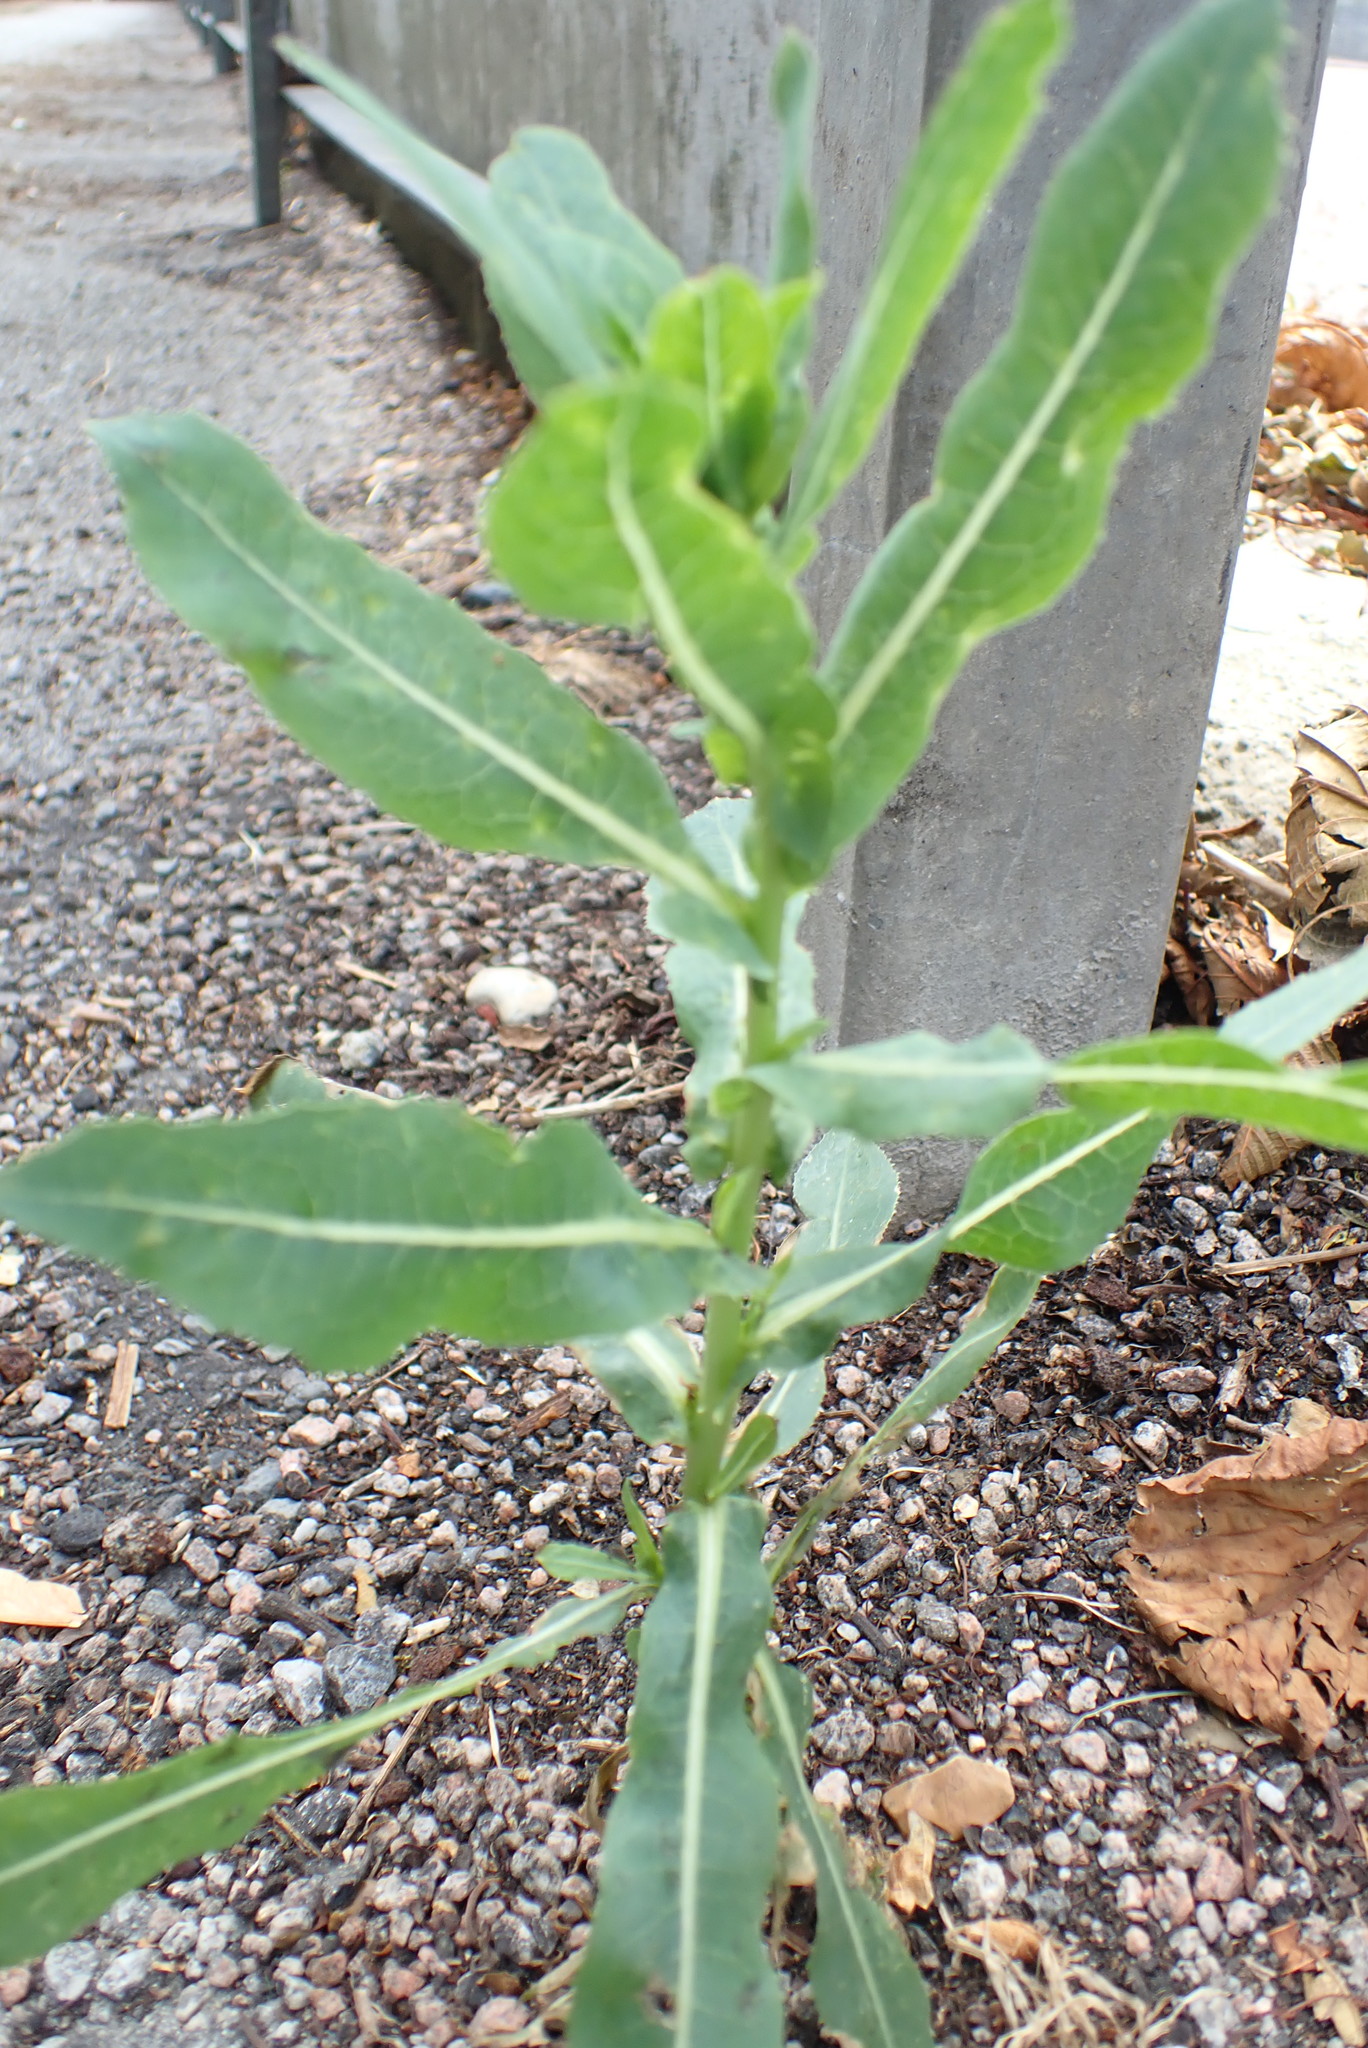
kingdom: Plantae
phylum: Tracheophyta
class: Magnoliopsida
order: Asterales
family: Asteraceae
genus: Lactuca
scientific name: Lactuca serriola
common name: Prickly lettuce
